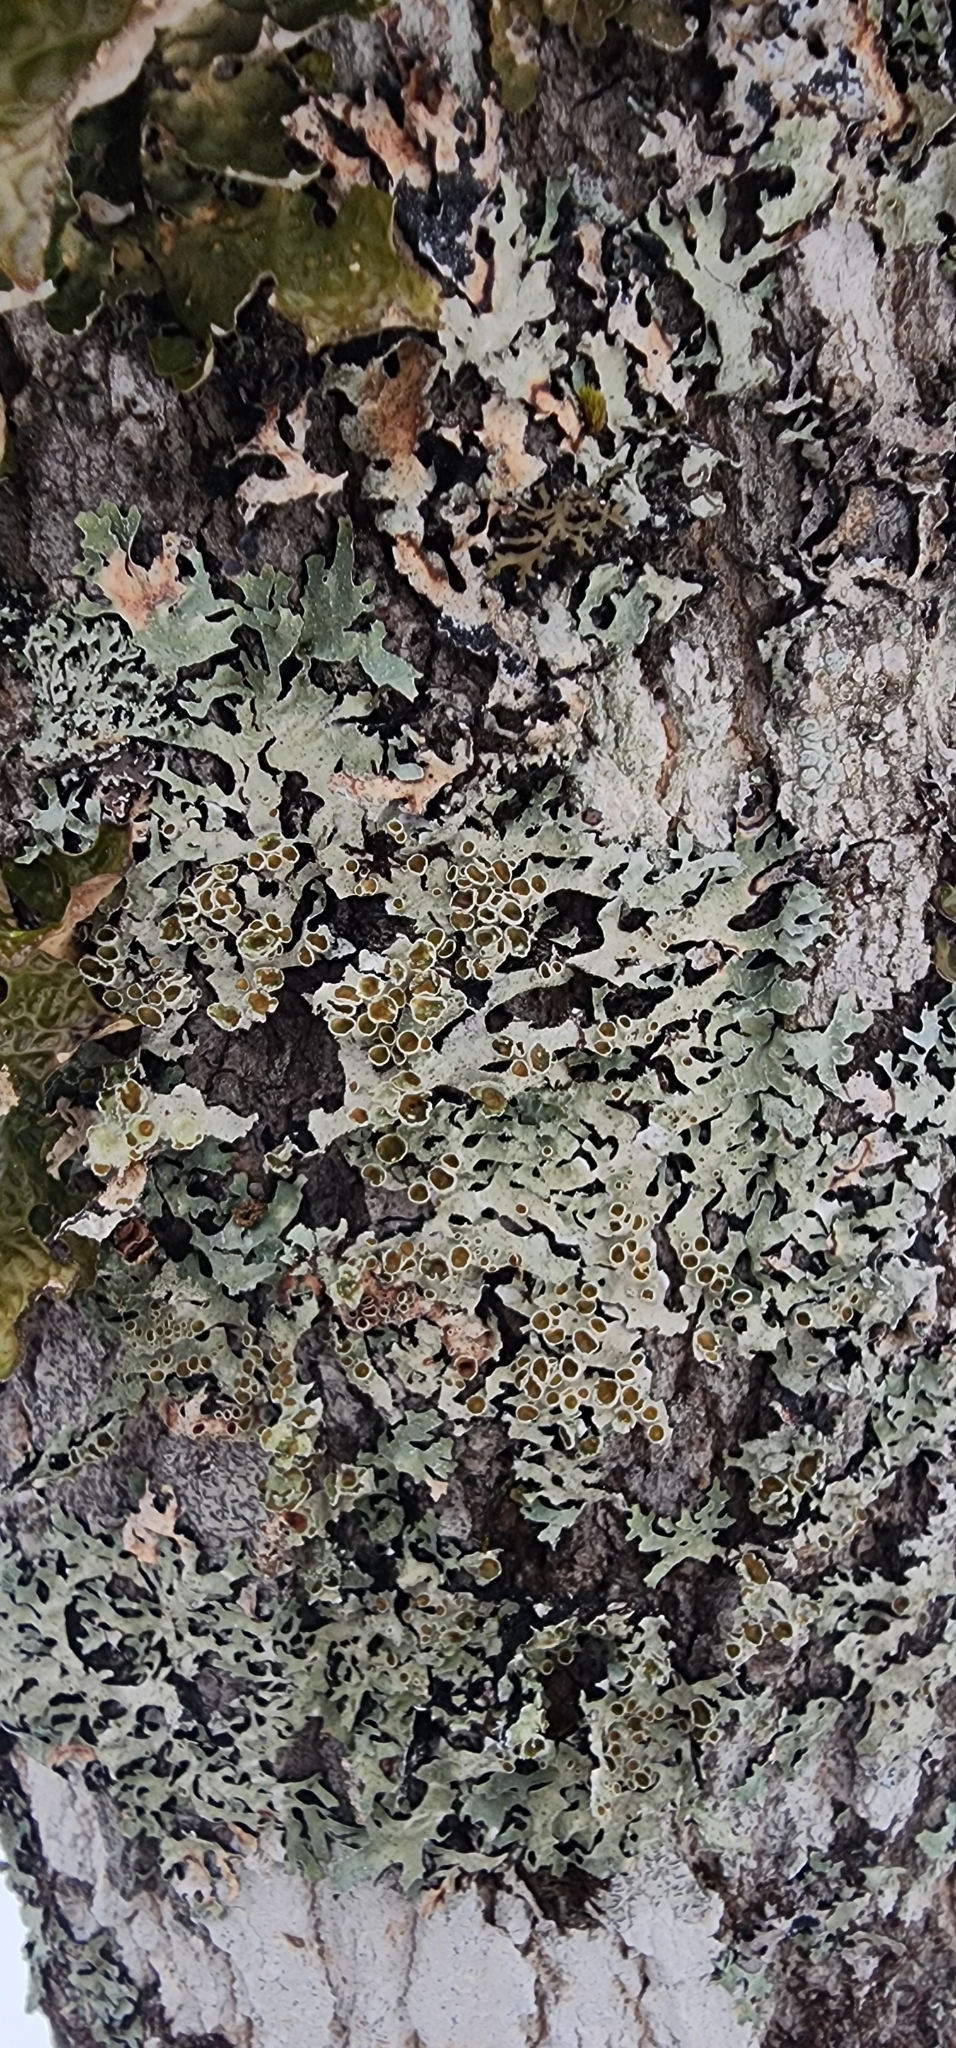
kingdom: Fungi
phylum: Ascomycota
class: Lecanoromycetes
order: Lecanorales
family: Parmeliaceae
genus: Parmelia
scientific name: Parmelia squarrosa
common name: Bottle brush shield lichen
